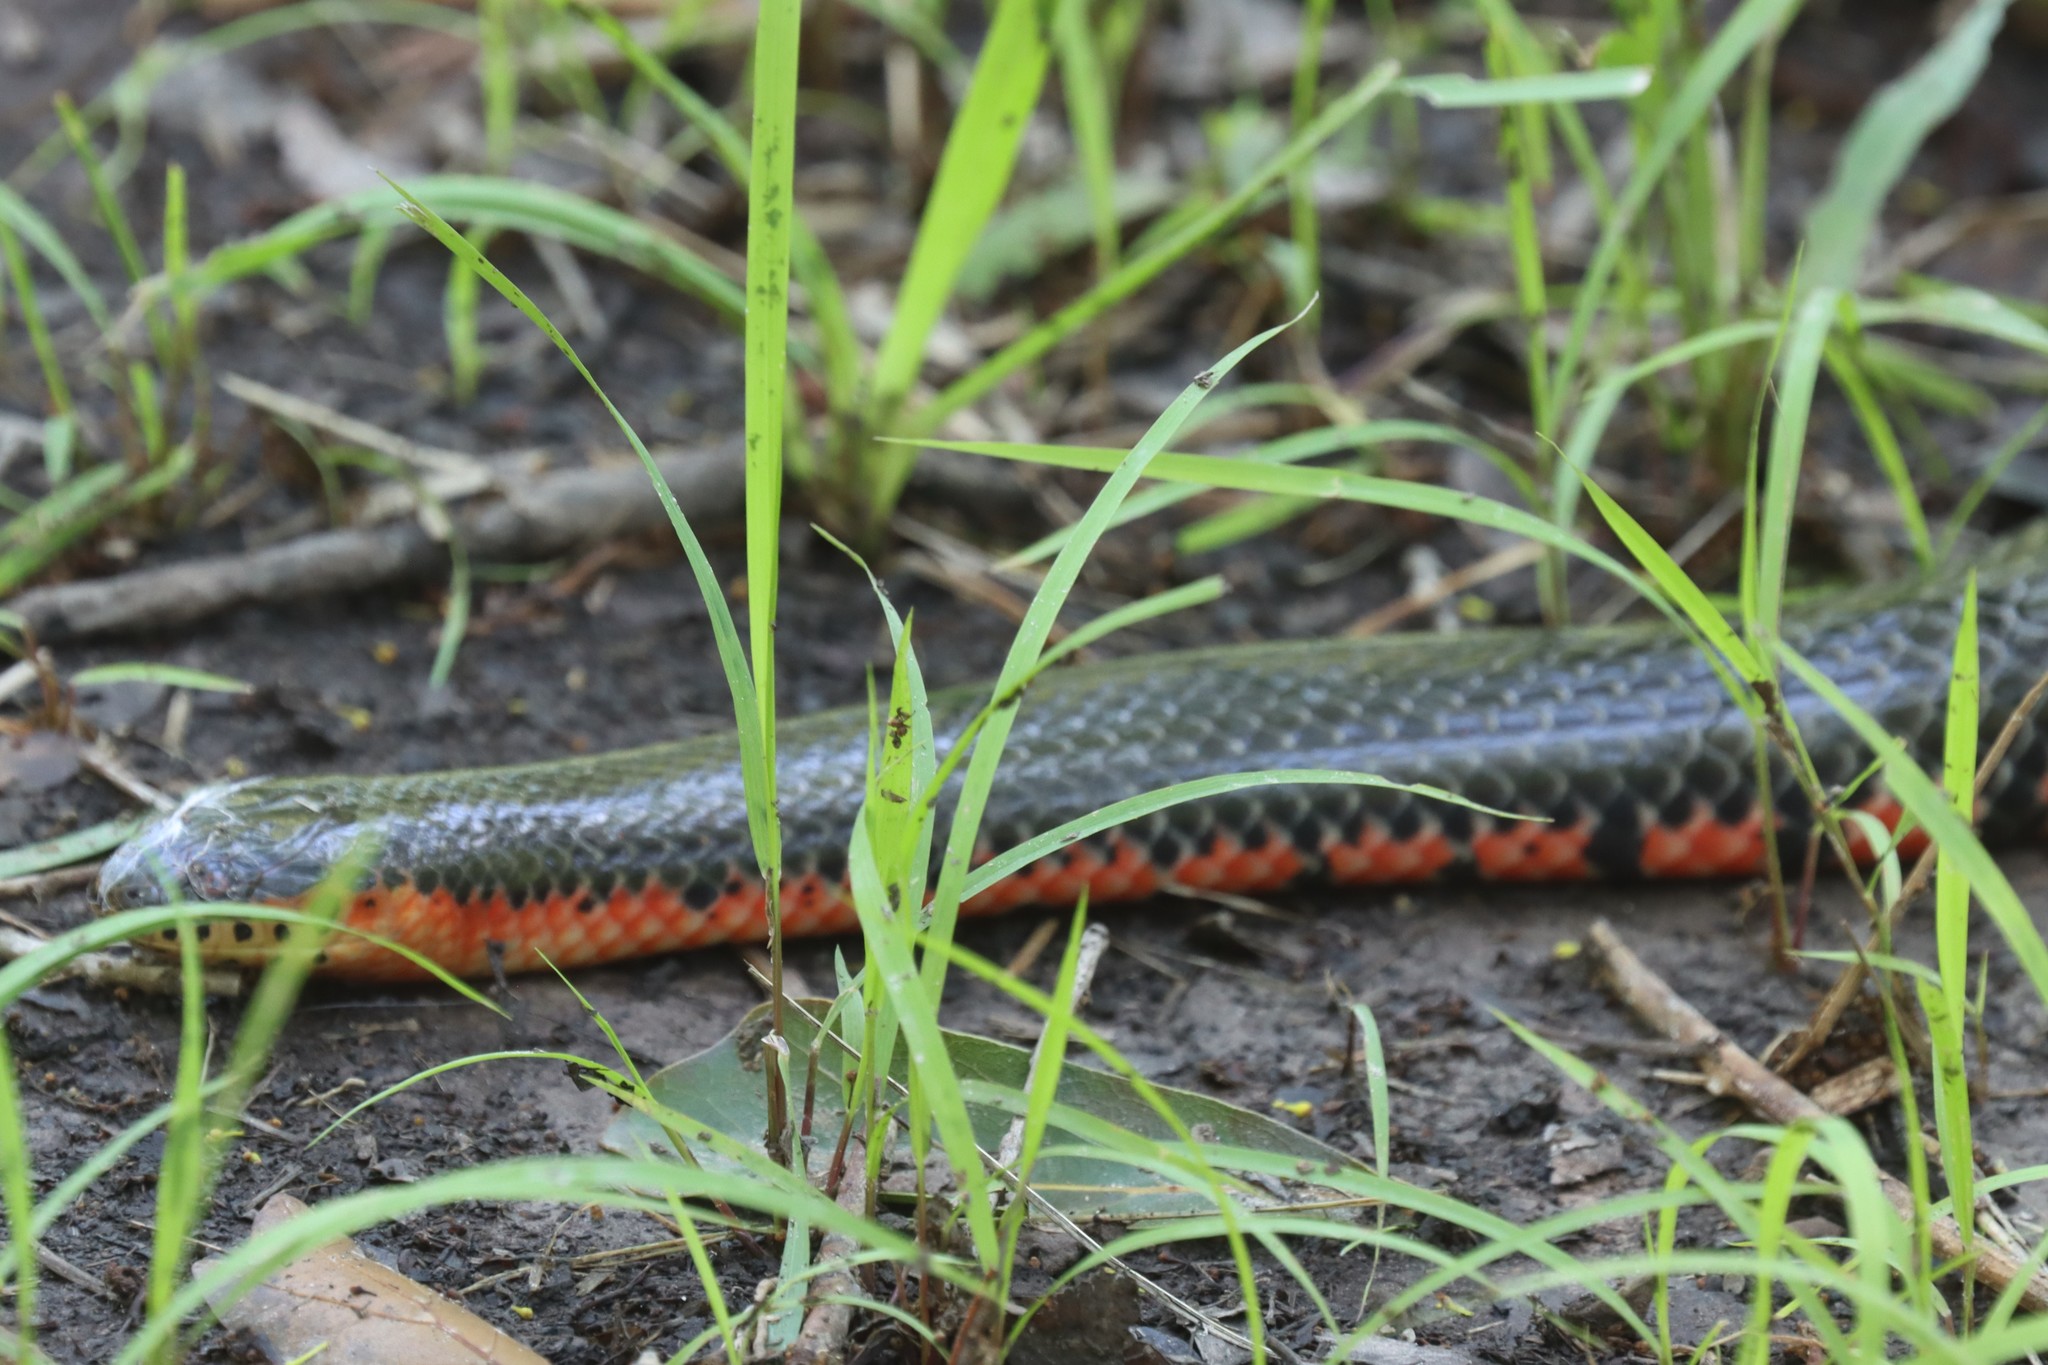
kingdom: Animalia
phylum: Chordata
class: Squamata
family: Colubridae
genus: Farancia
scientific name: Farancia abacura
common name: Mud snake
